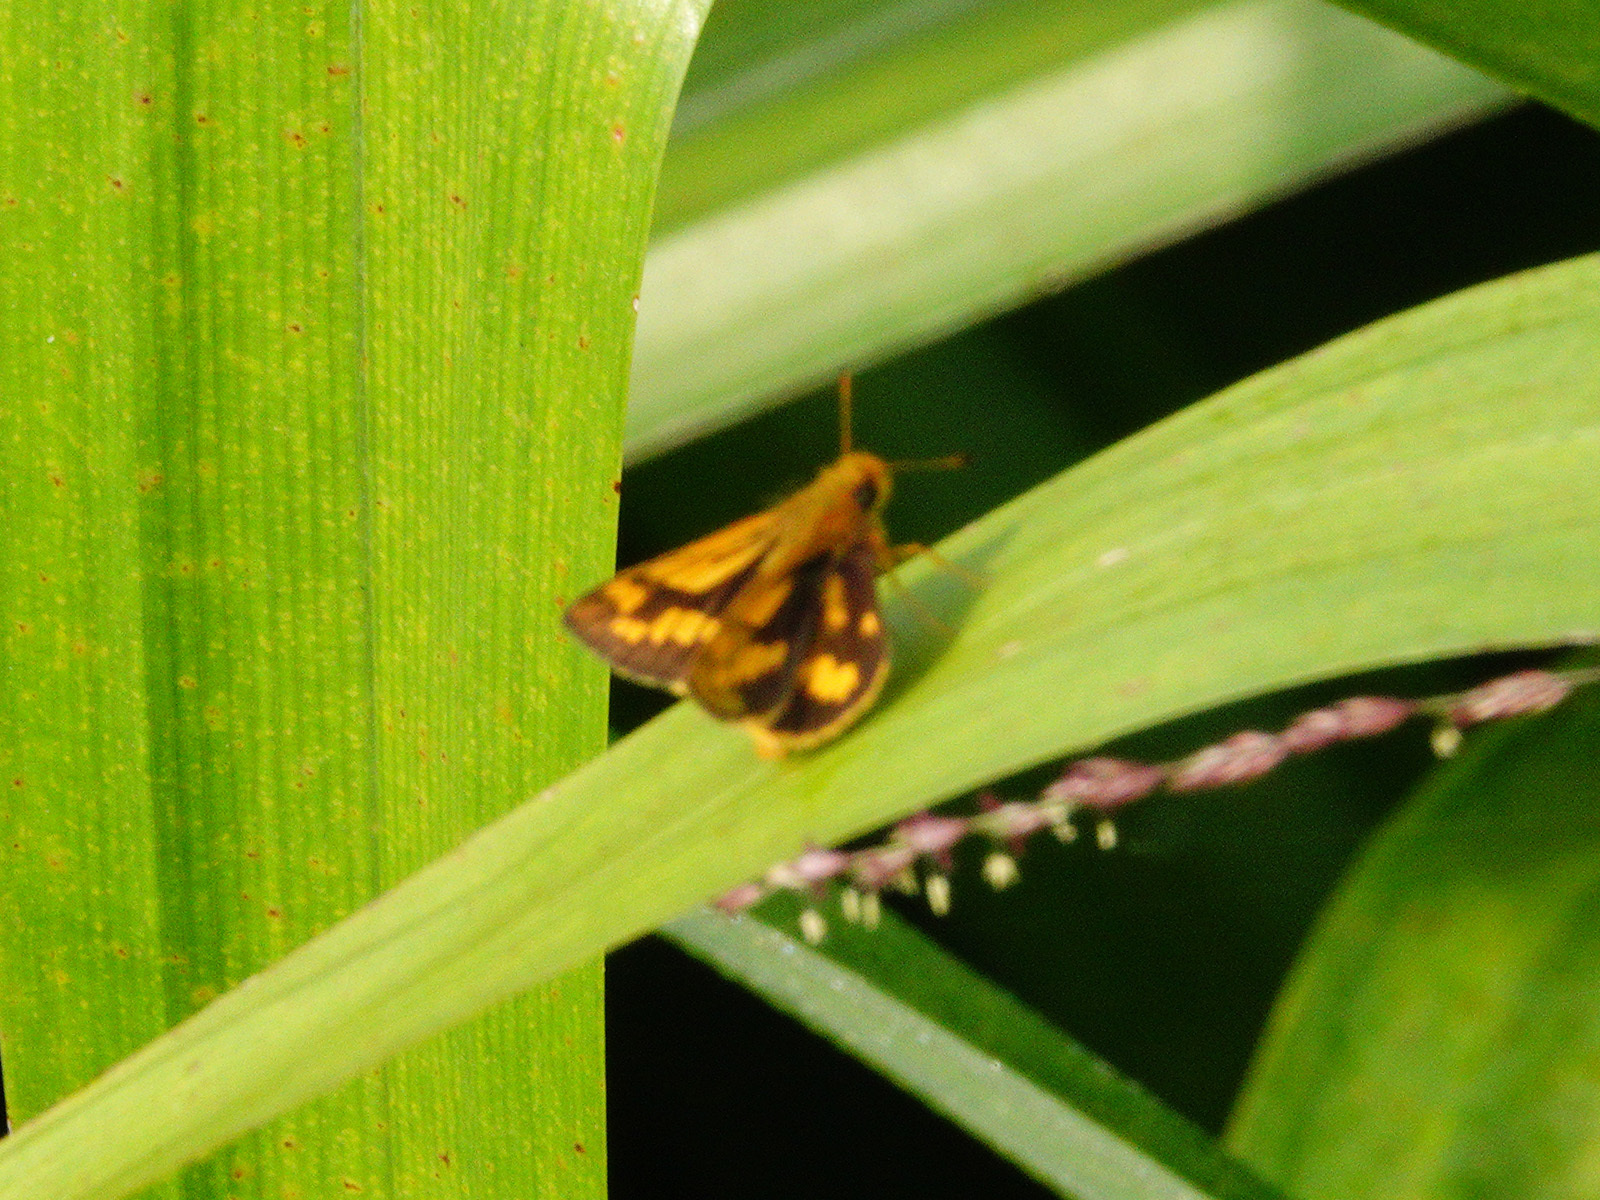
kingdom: Animalia
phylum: Arthropoda
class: Insecta
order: Lepidoptera
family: Hesperiidae
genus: Potanthus
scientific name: Potanthus omaha
